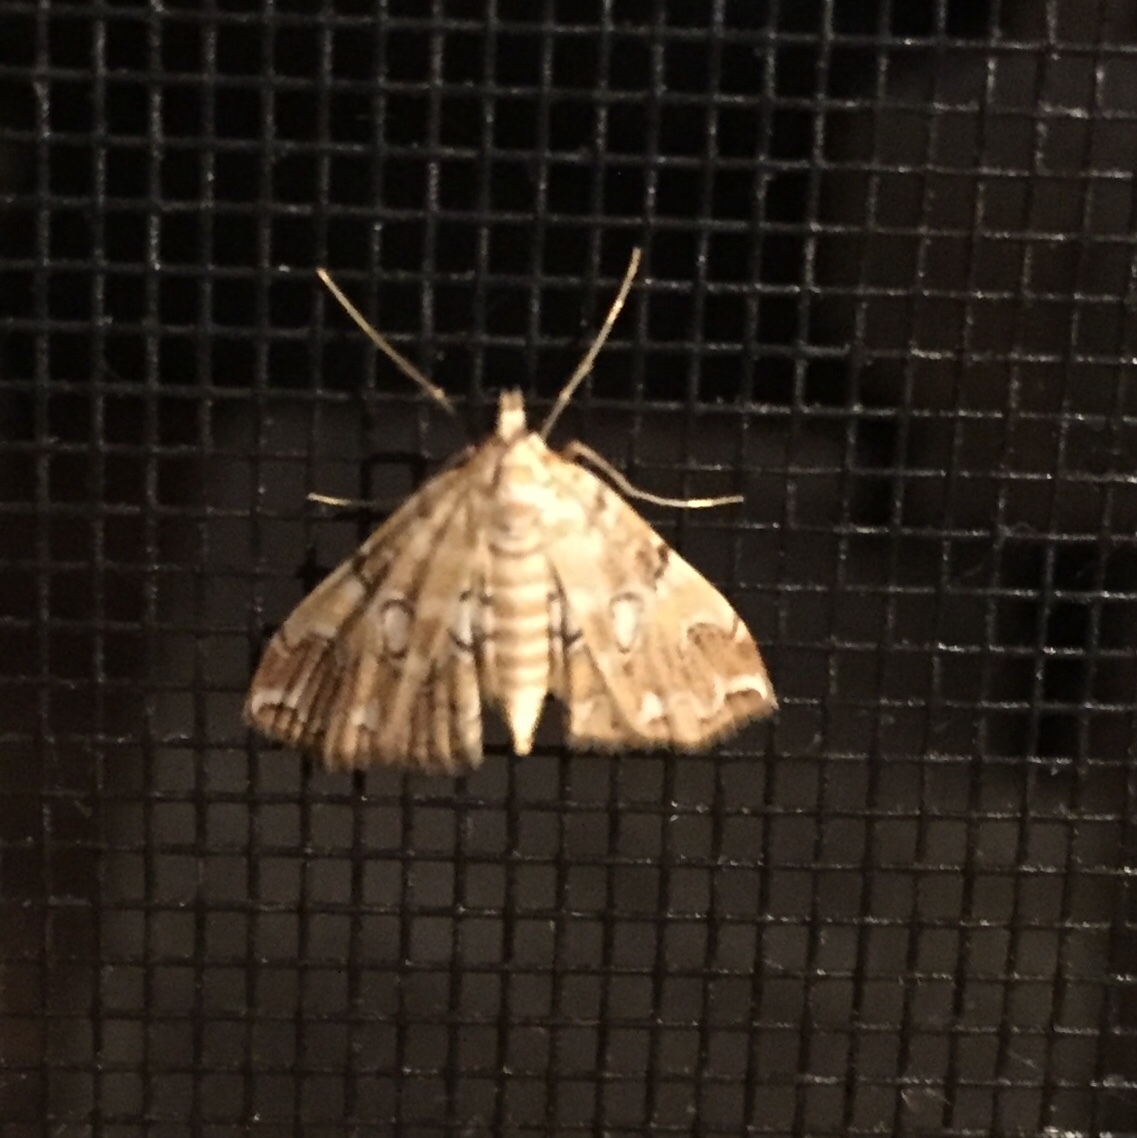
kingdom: Animalia
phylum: Arthropoda
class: Insecta
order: Lepidoptera
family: Crambidae
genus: Elophila
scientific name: Elophila icciusalis
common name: Pondside pyralid moth
